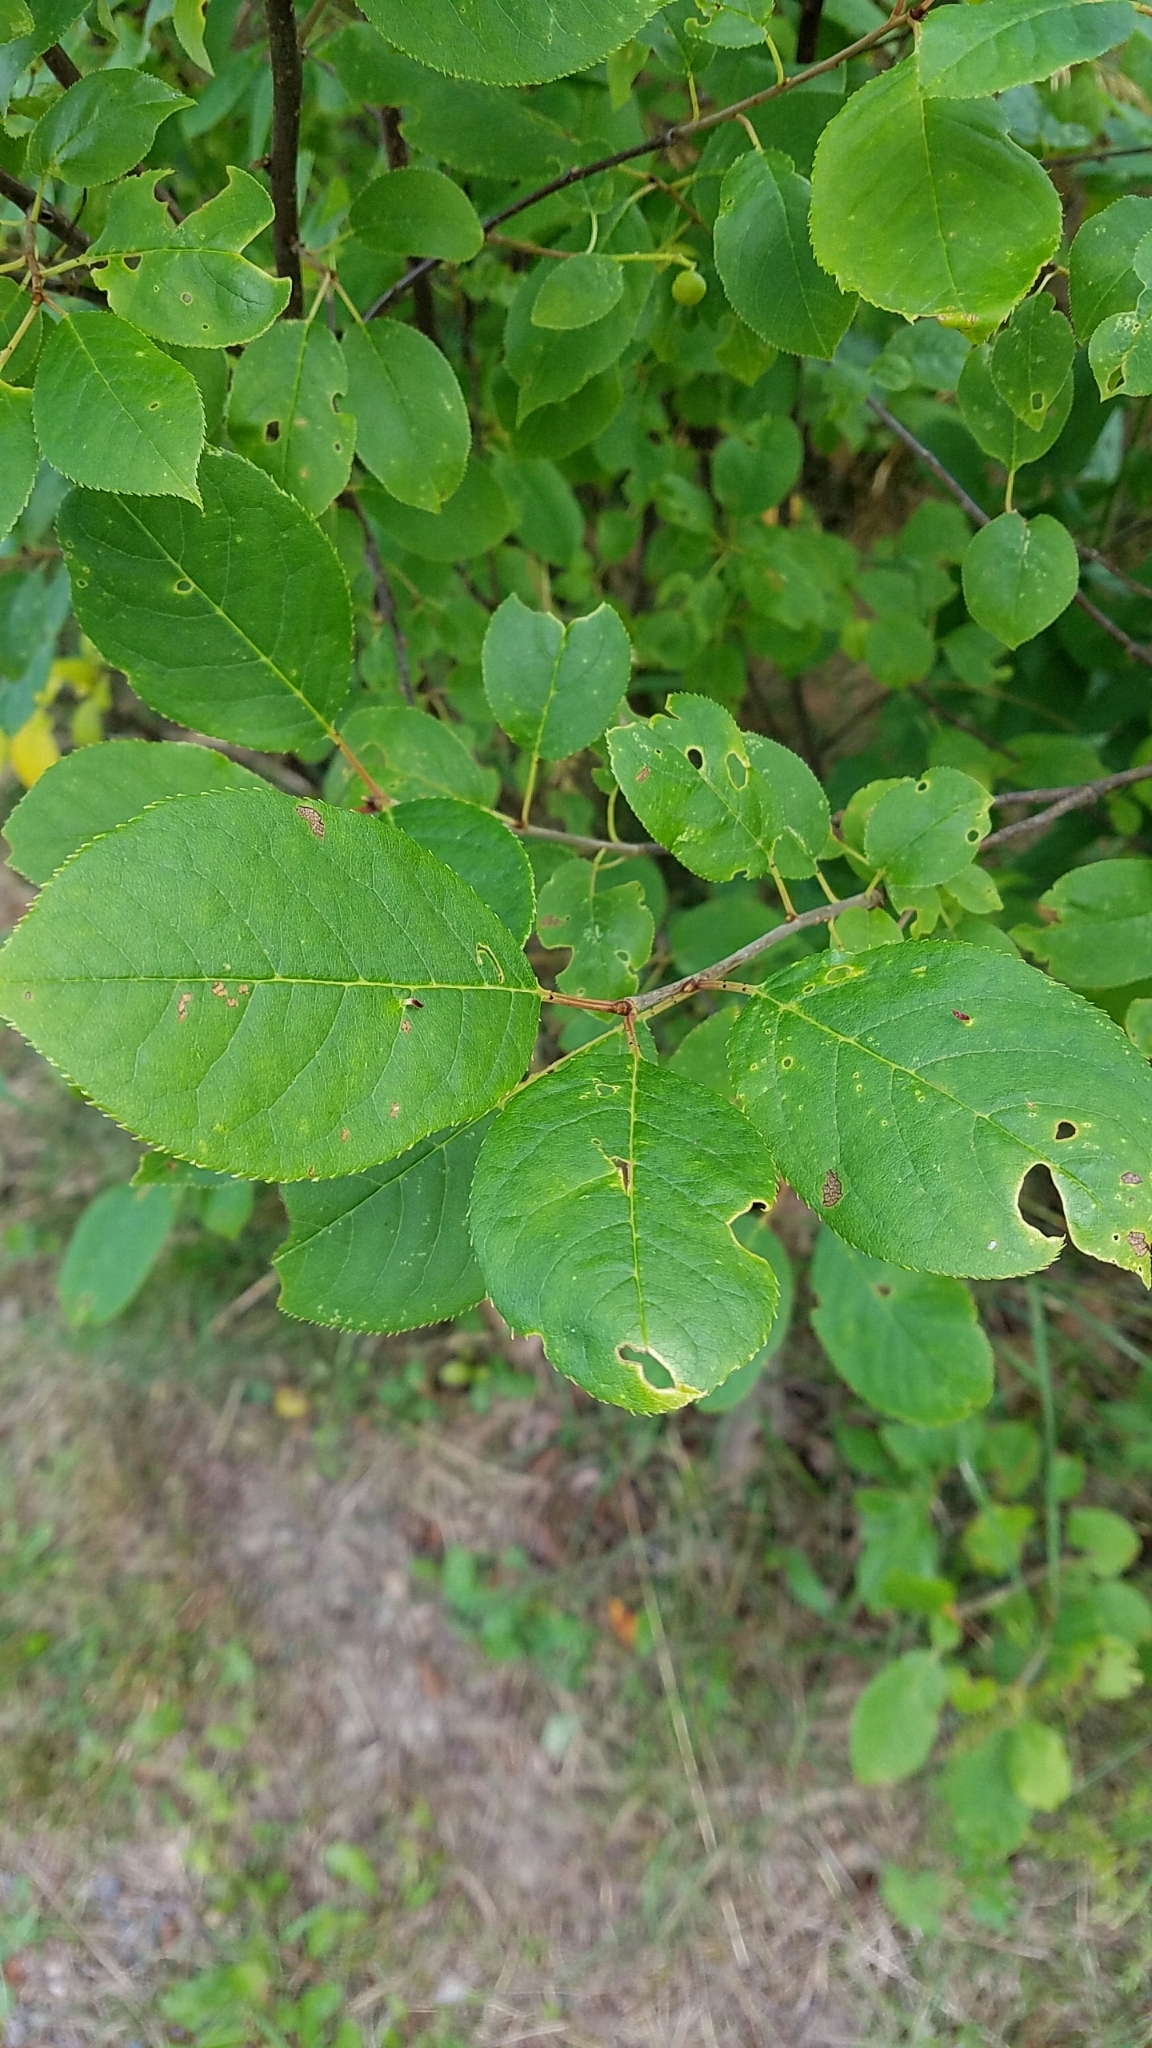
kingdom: Plantae
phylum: Tracheophyta
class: Magnoliopsida
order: Rosales
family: Rosaceae
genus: Prunus
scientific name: Prunus virginiana
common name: Chokecherry
